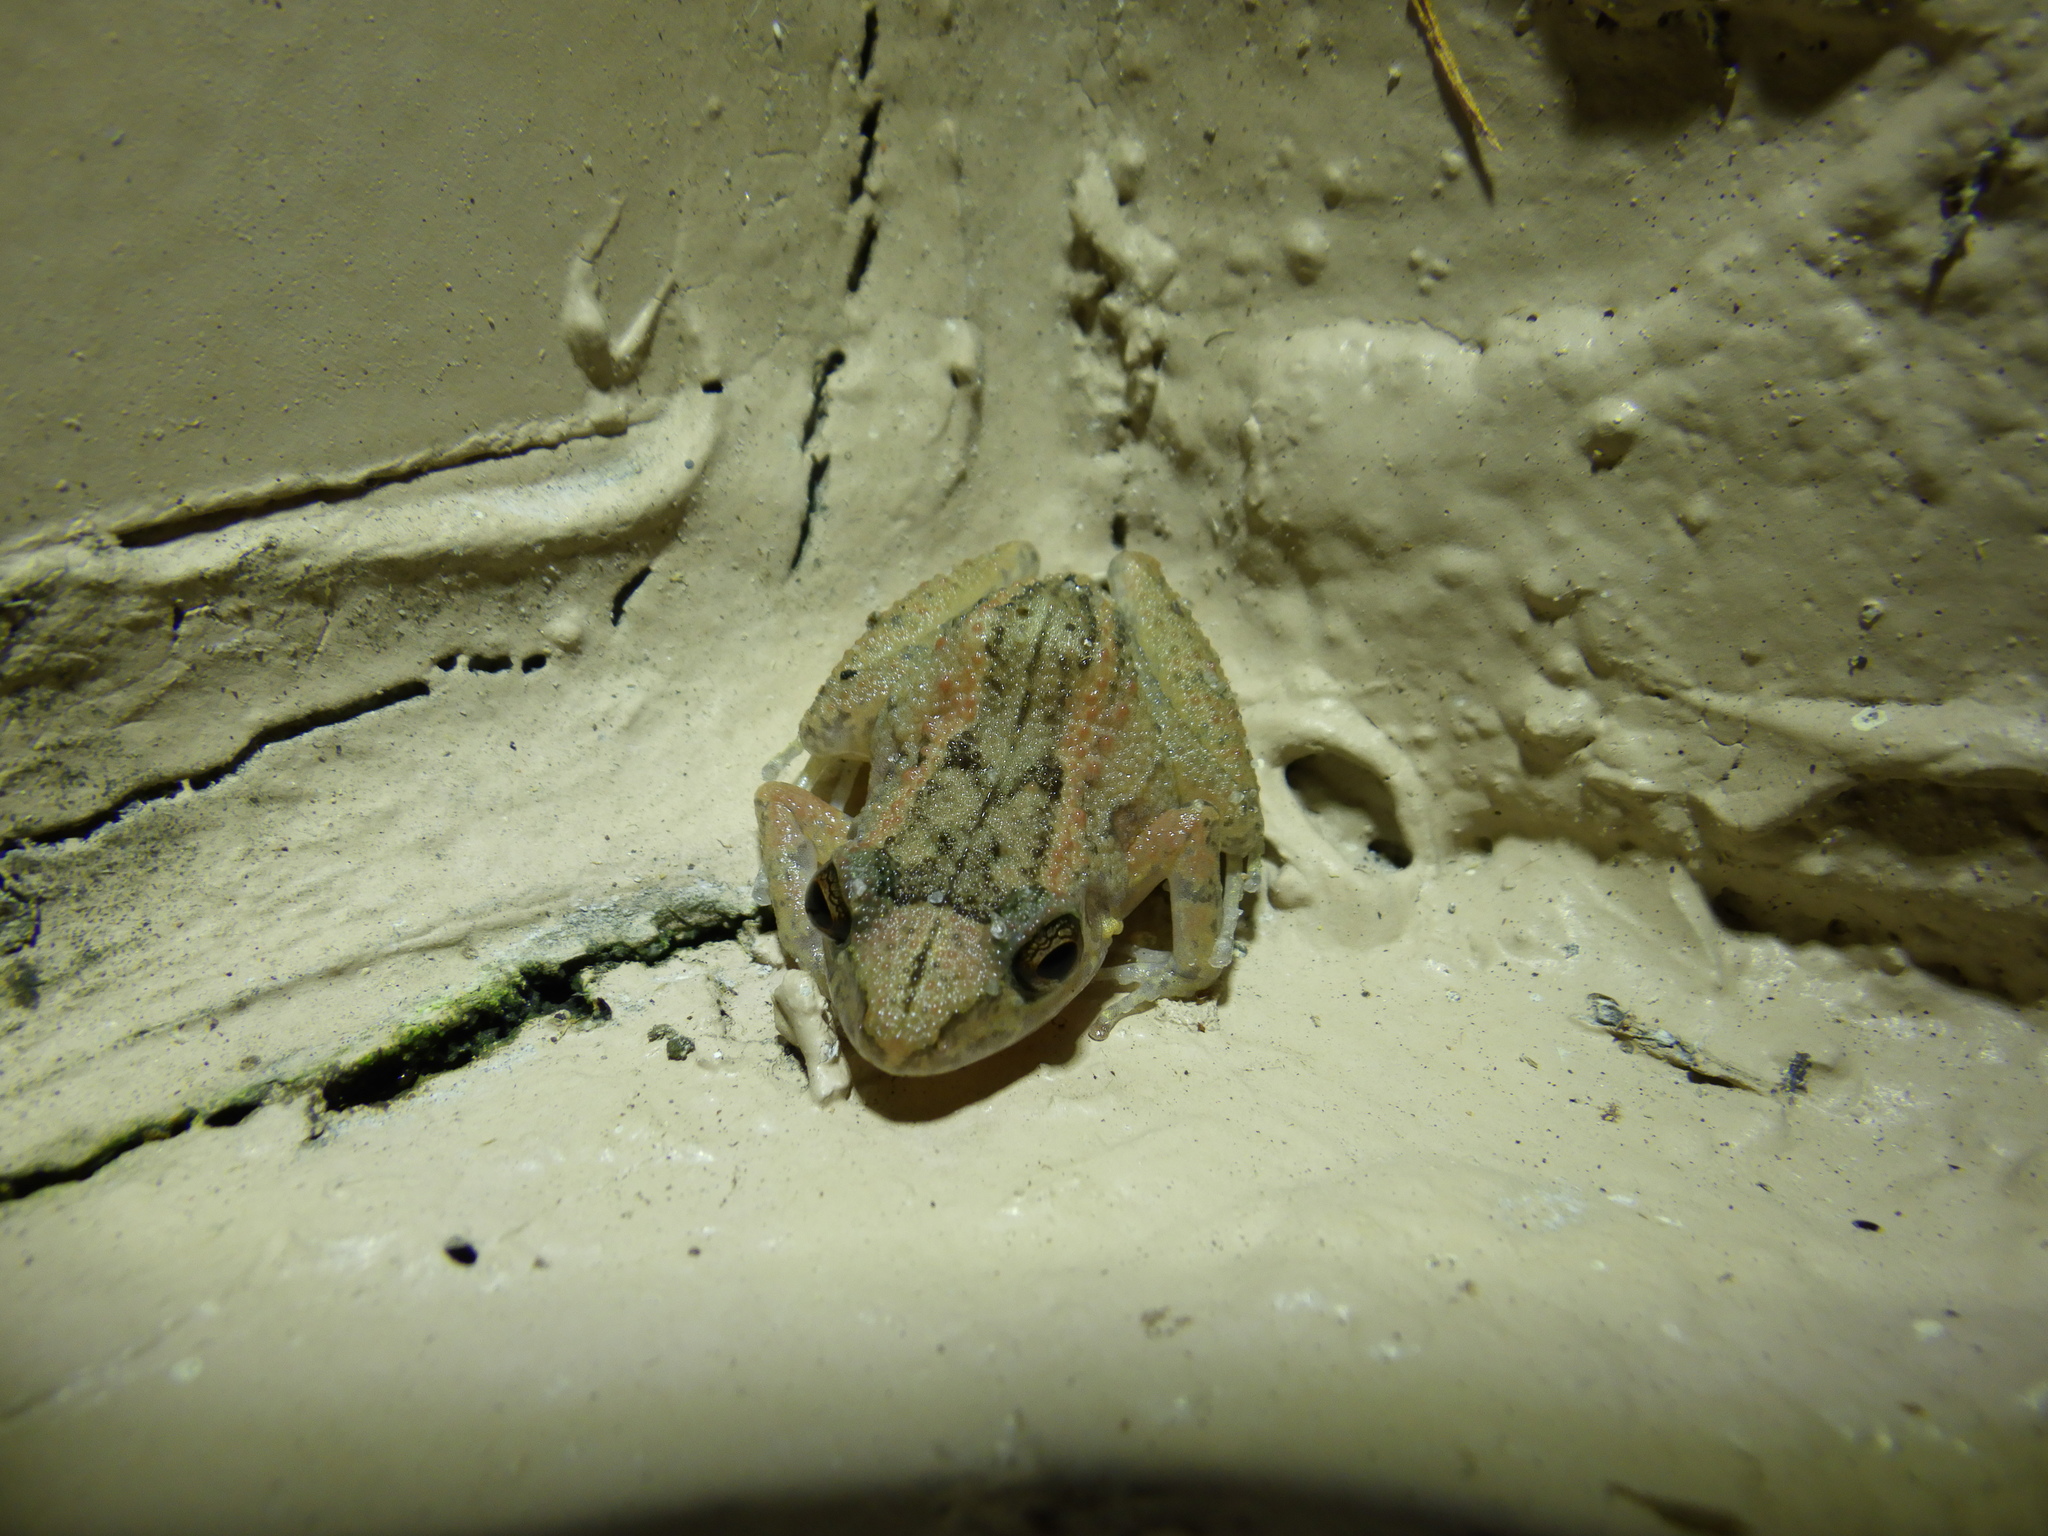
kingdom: Animalia
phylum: Chordata
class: Amphibia
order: Anura
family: Eleutherodactylidae
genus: Eleutherodactylus
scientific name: Eleutherodactylus planirostris
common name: Greenhouse frog
